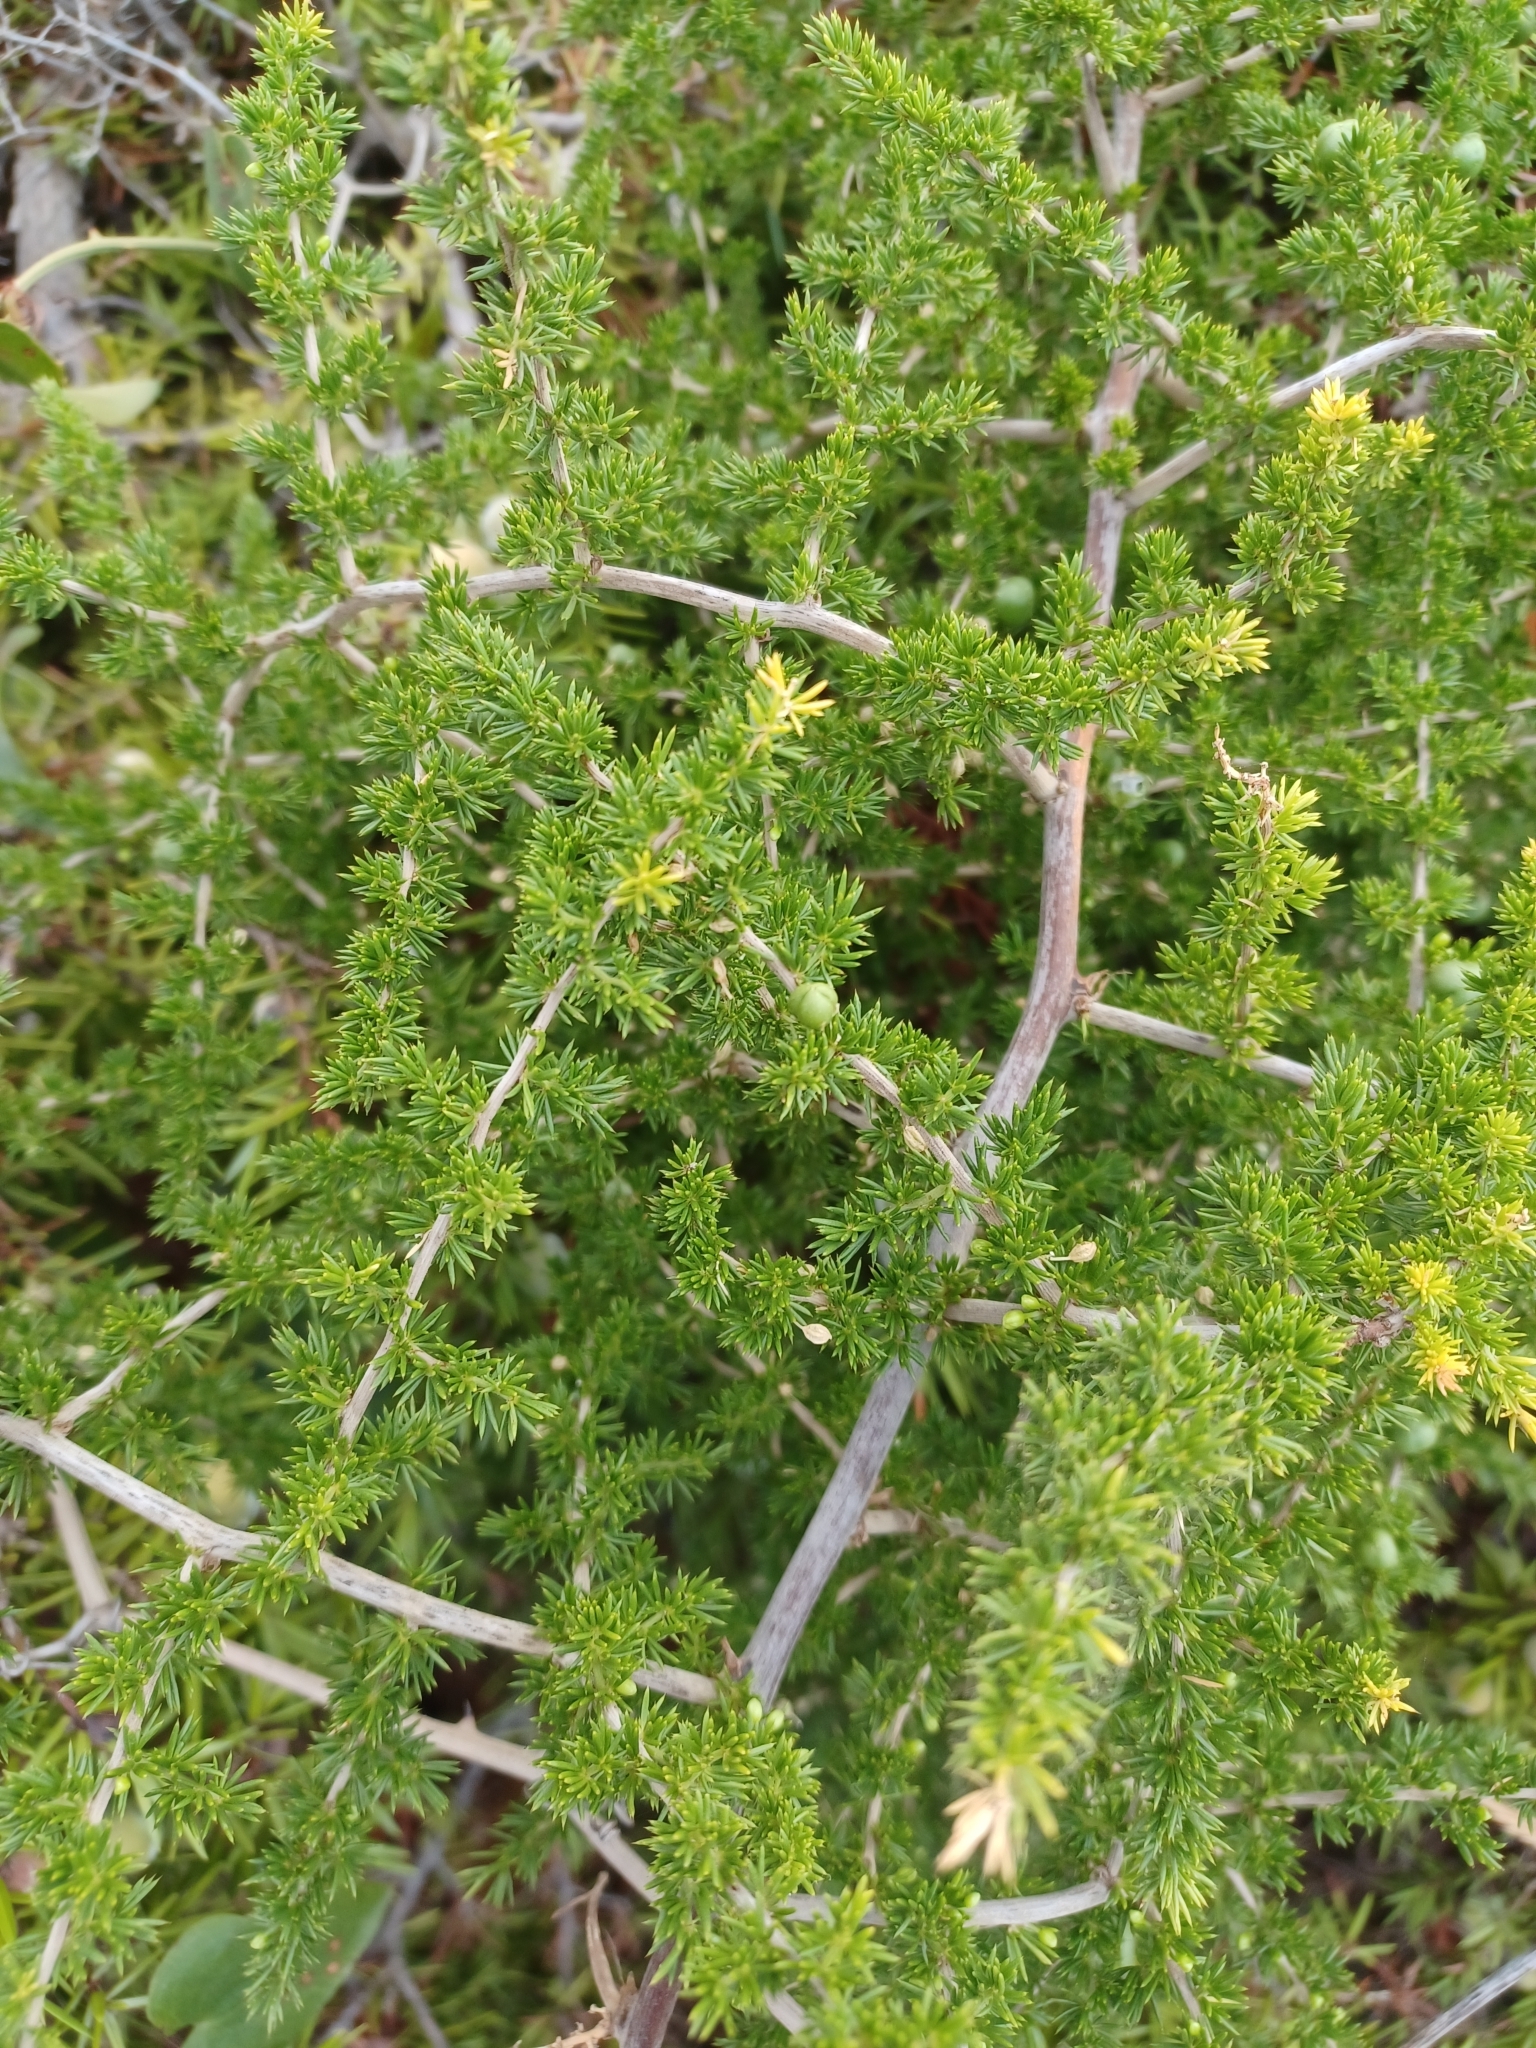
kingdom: Plantae
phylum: Tracheophyta
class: Liliopsida
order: Asparagales
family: Asparagaceae
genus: Asparagus
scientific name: Asparagus acutifolius
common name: Wild asparagus
